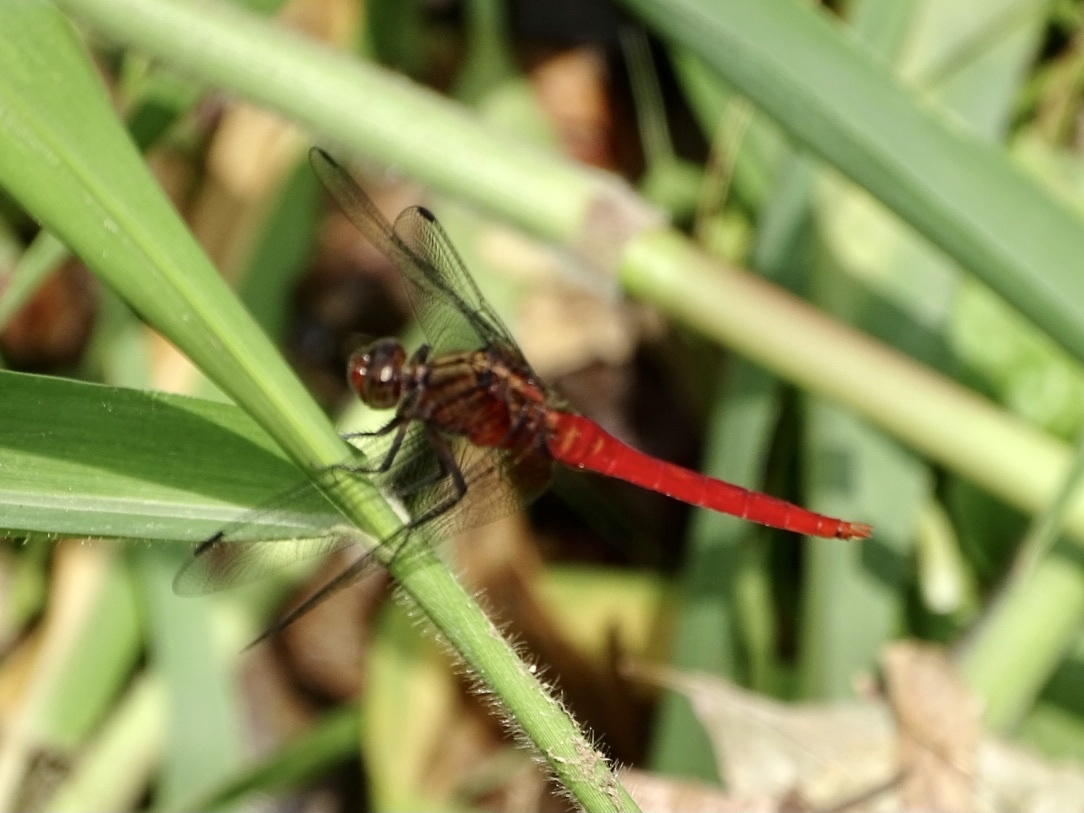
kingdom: Animalia
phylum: Arthropoda
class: Insecta
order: Odonata
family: Libellulidae
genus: Orthetrum
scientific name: Orthetrum chrysis
